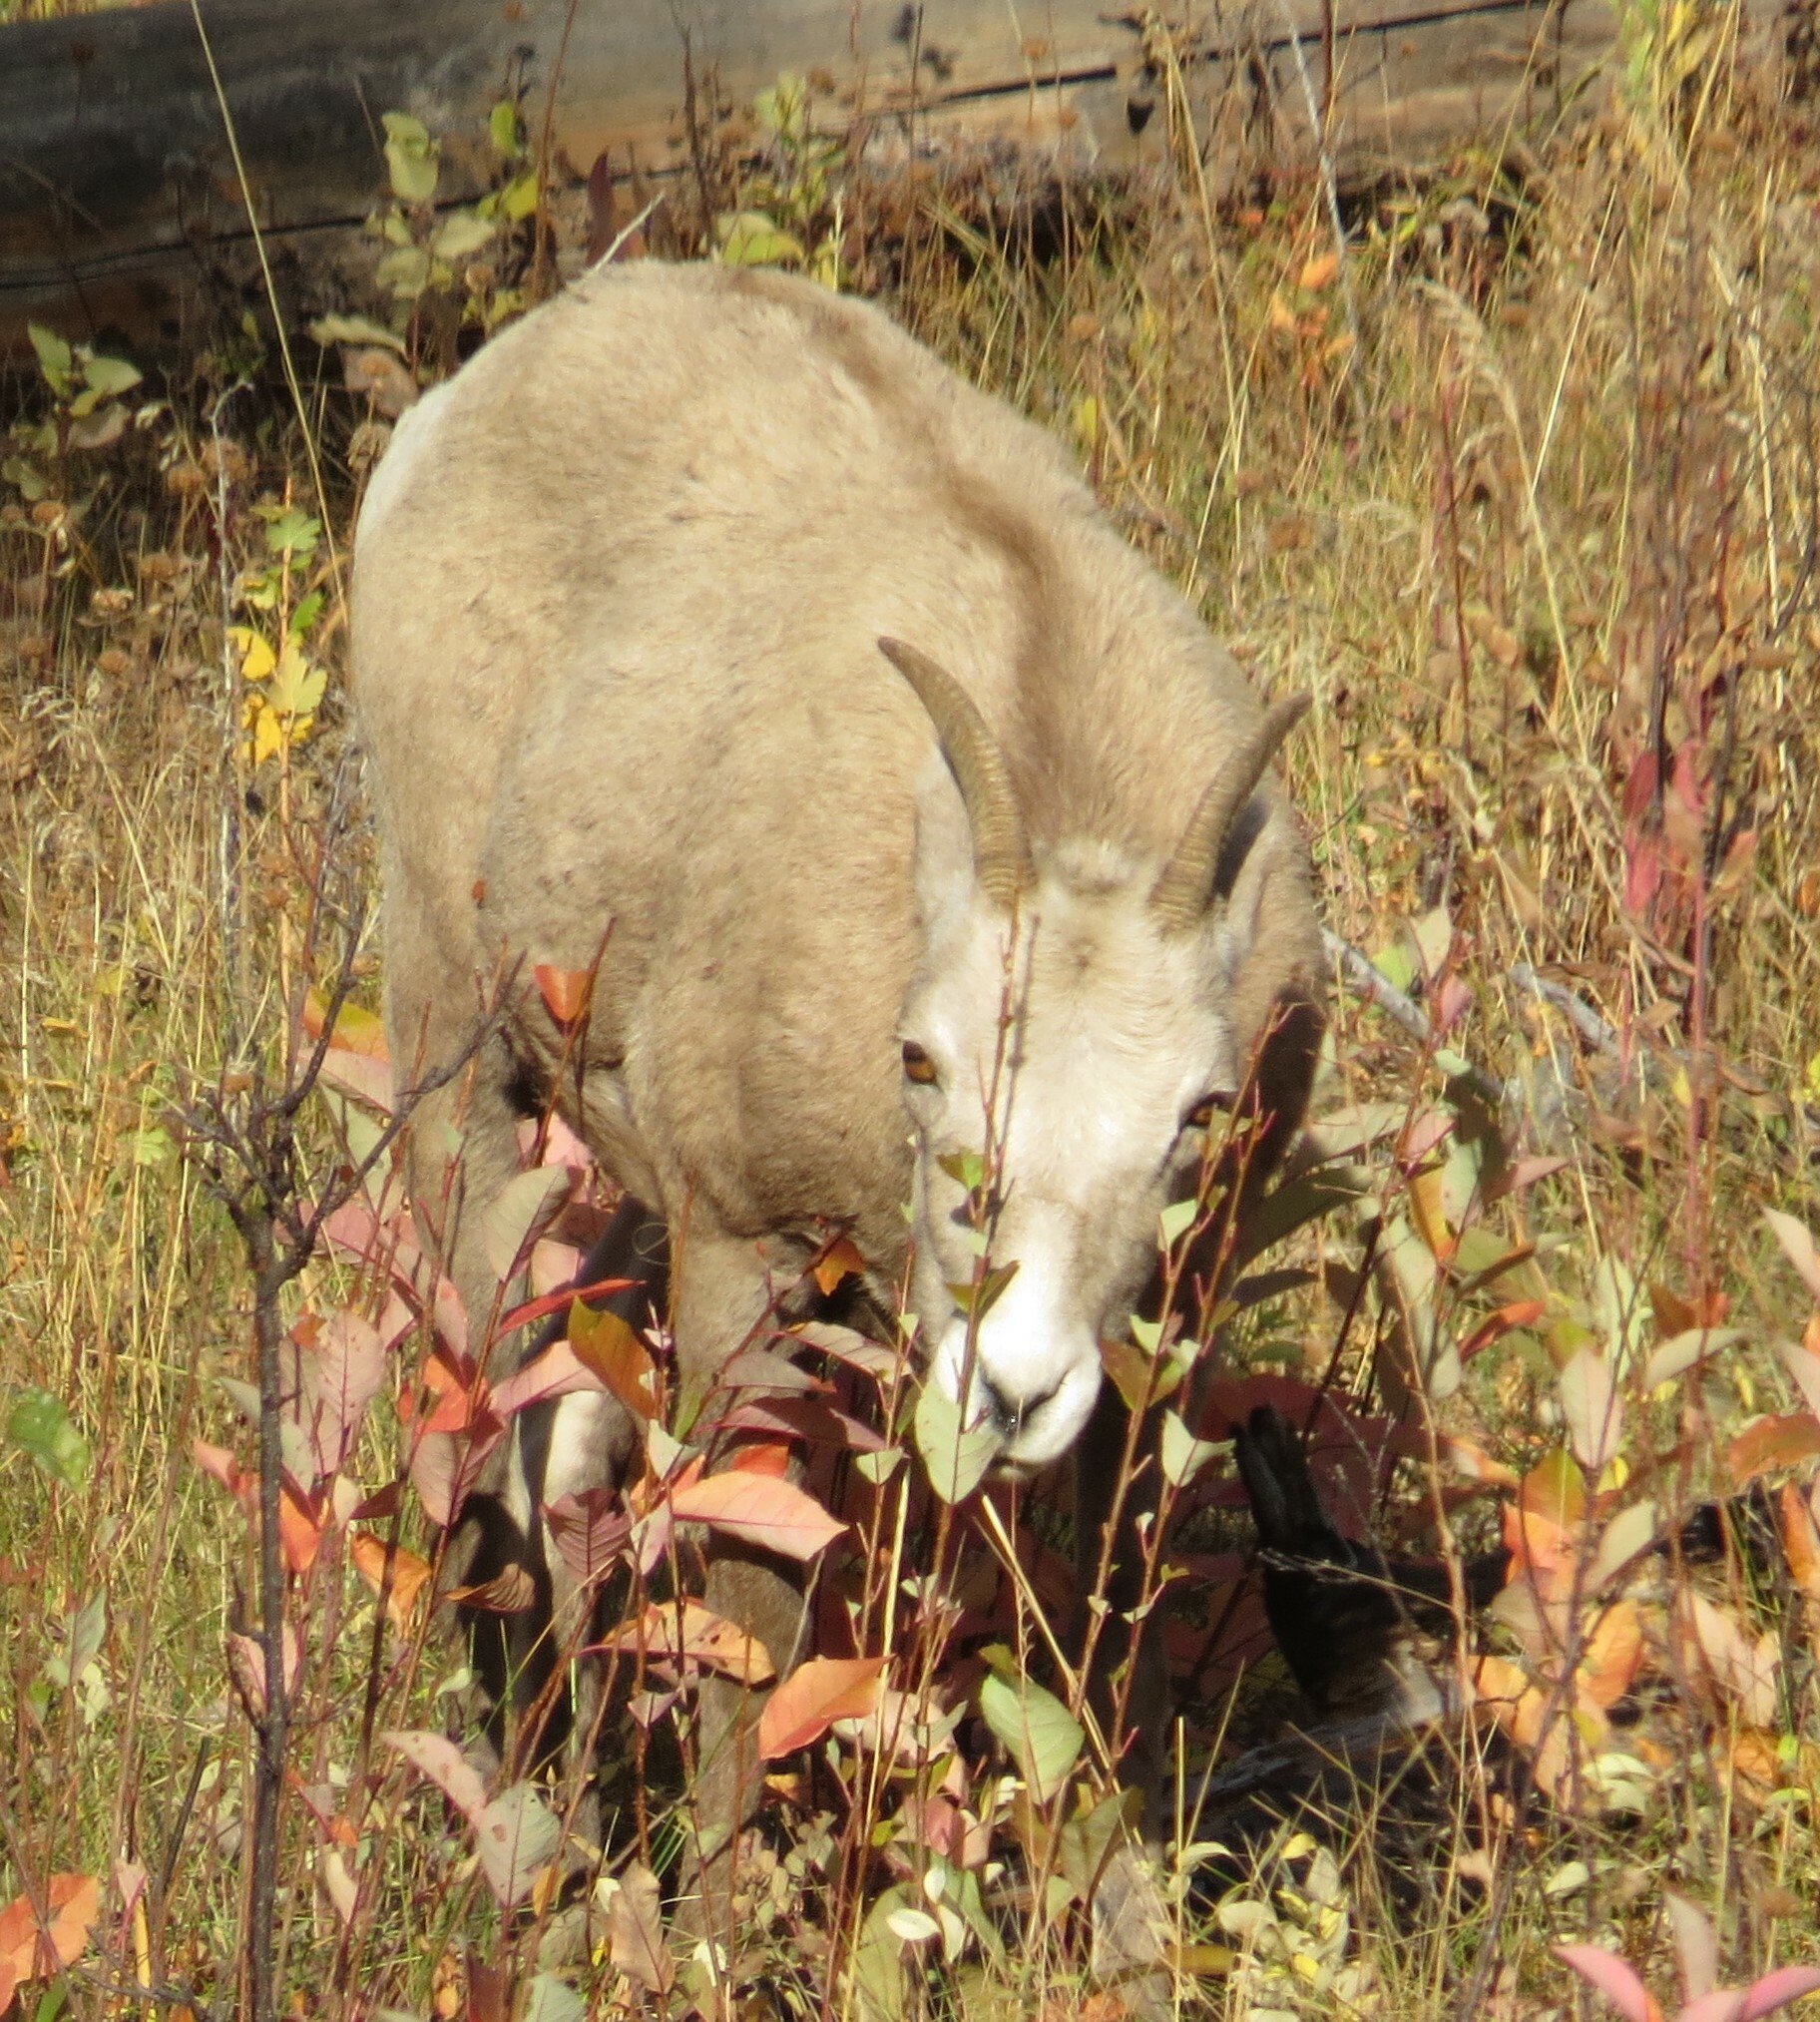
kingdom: Animalia
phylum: Chordata
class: Mammalia
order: Artiodactyla
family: Bovidae
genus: Ovis
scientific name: Ovis canadensis
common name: Bighorn sheep
